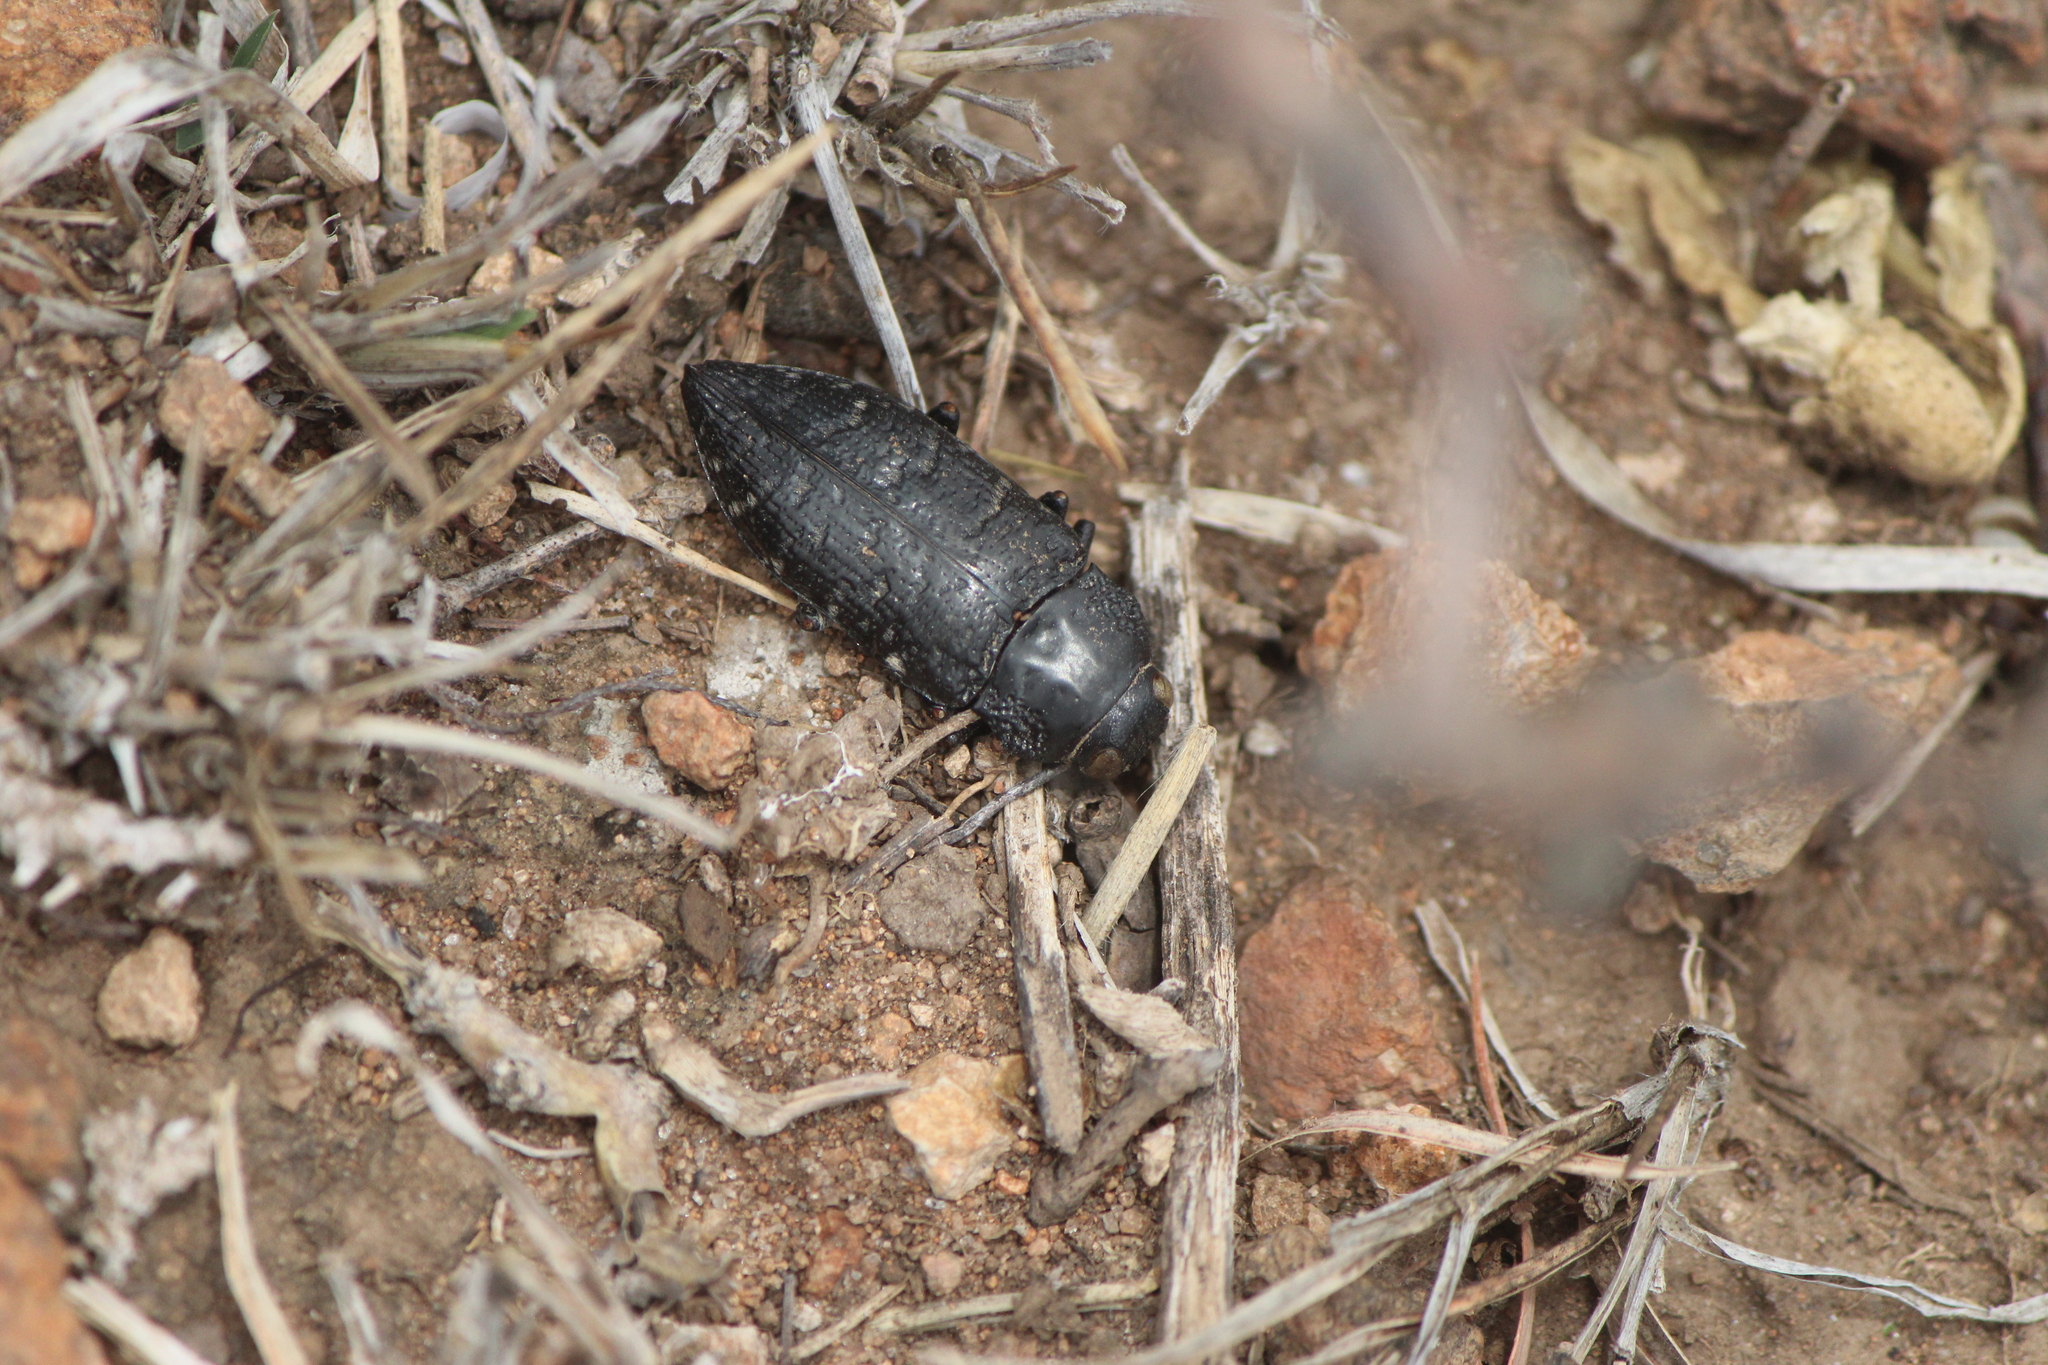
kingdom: Animalia
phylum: Arthropoda
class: Insecta
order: Coleoptera
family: Buprestidae
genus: Lampetis
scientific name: Lampetis dilaticollis
